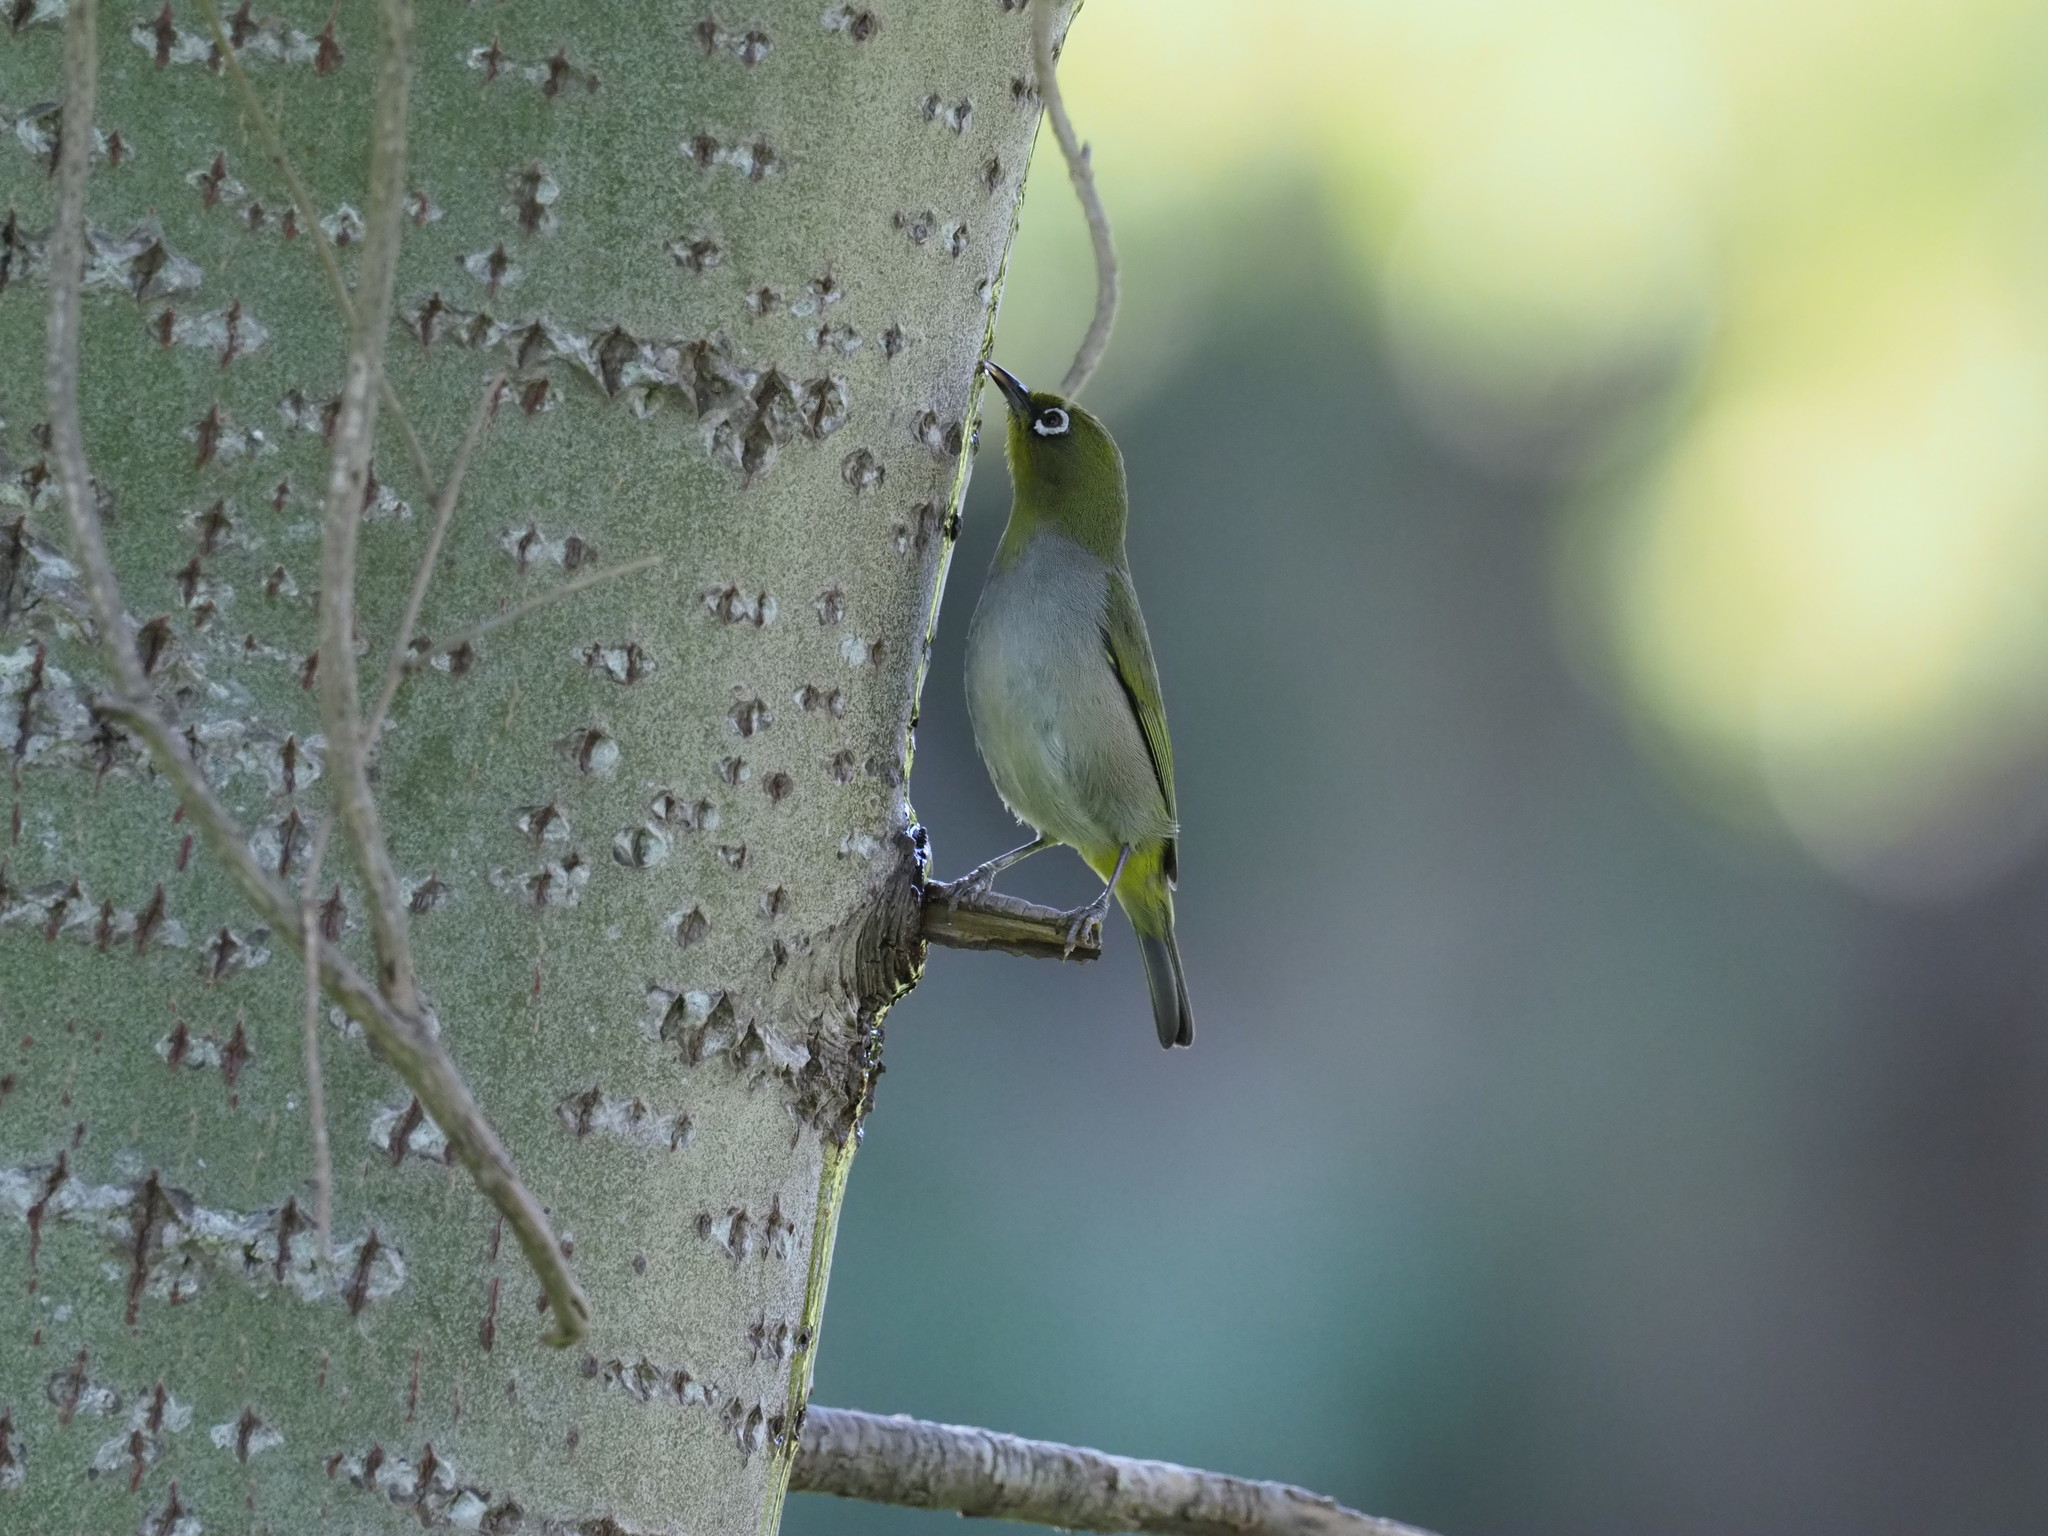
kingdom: Animalia
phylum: Chordata
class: Aves
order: Passeriformes
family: Zosteropidae
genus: Zosterops
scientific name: Zosterops virens
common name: Cape white-eye
